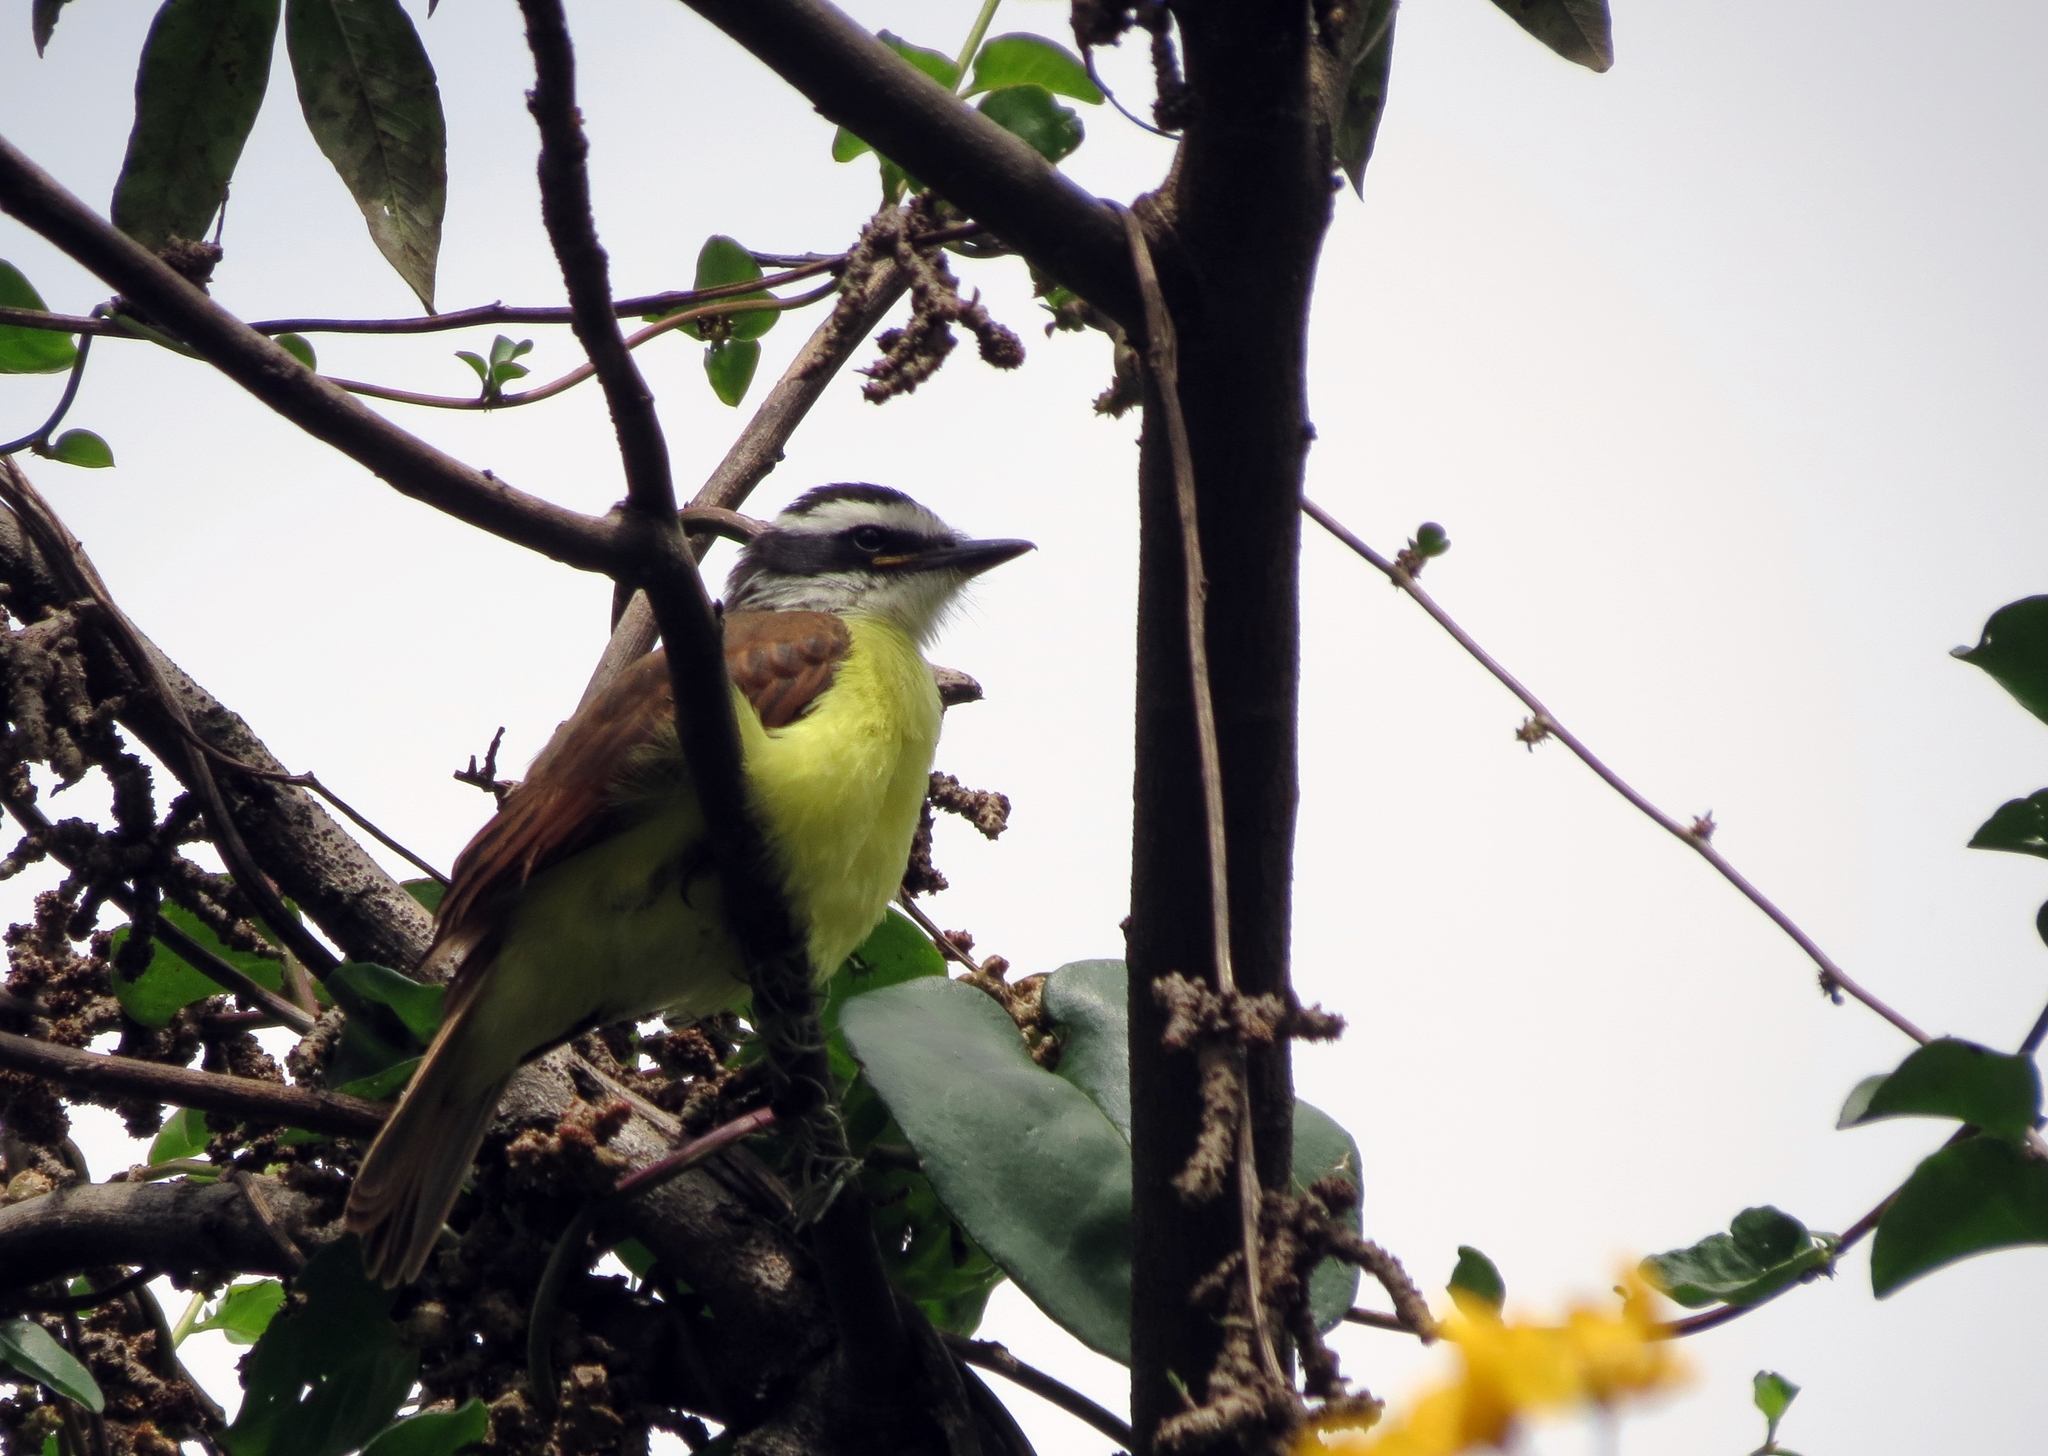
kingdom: Animalia
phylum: Chordata
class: Aves
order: Passeriformes
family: Tyrannidae
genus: Pitangus
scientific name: Pitangus lictor
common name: Lesser kiskadee
